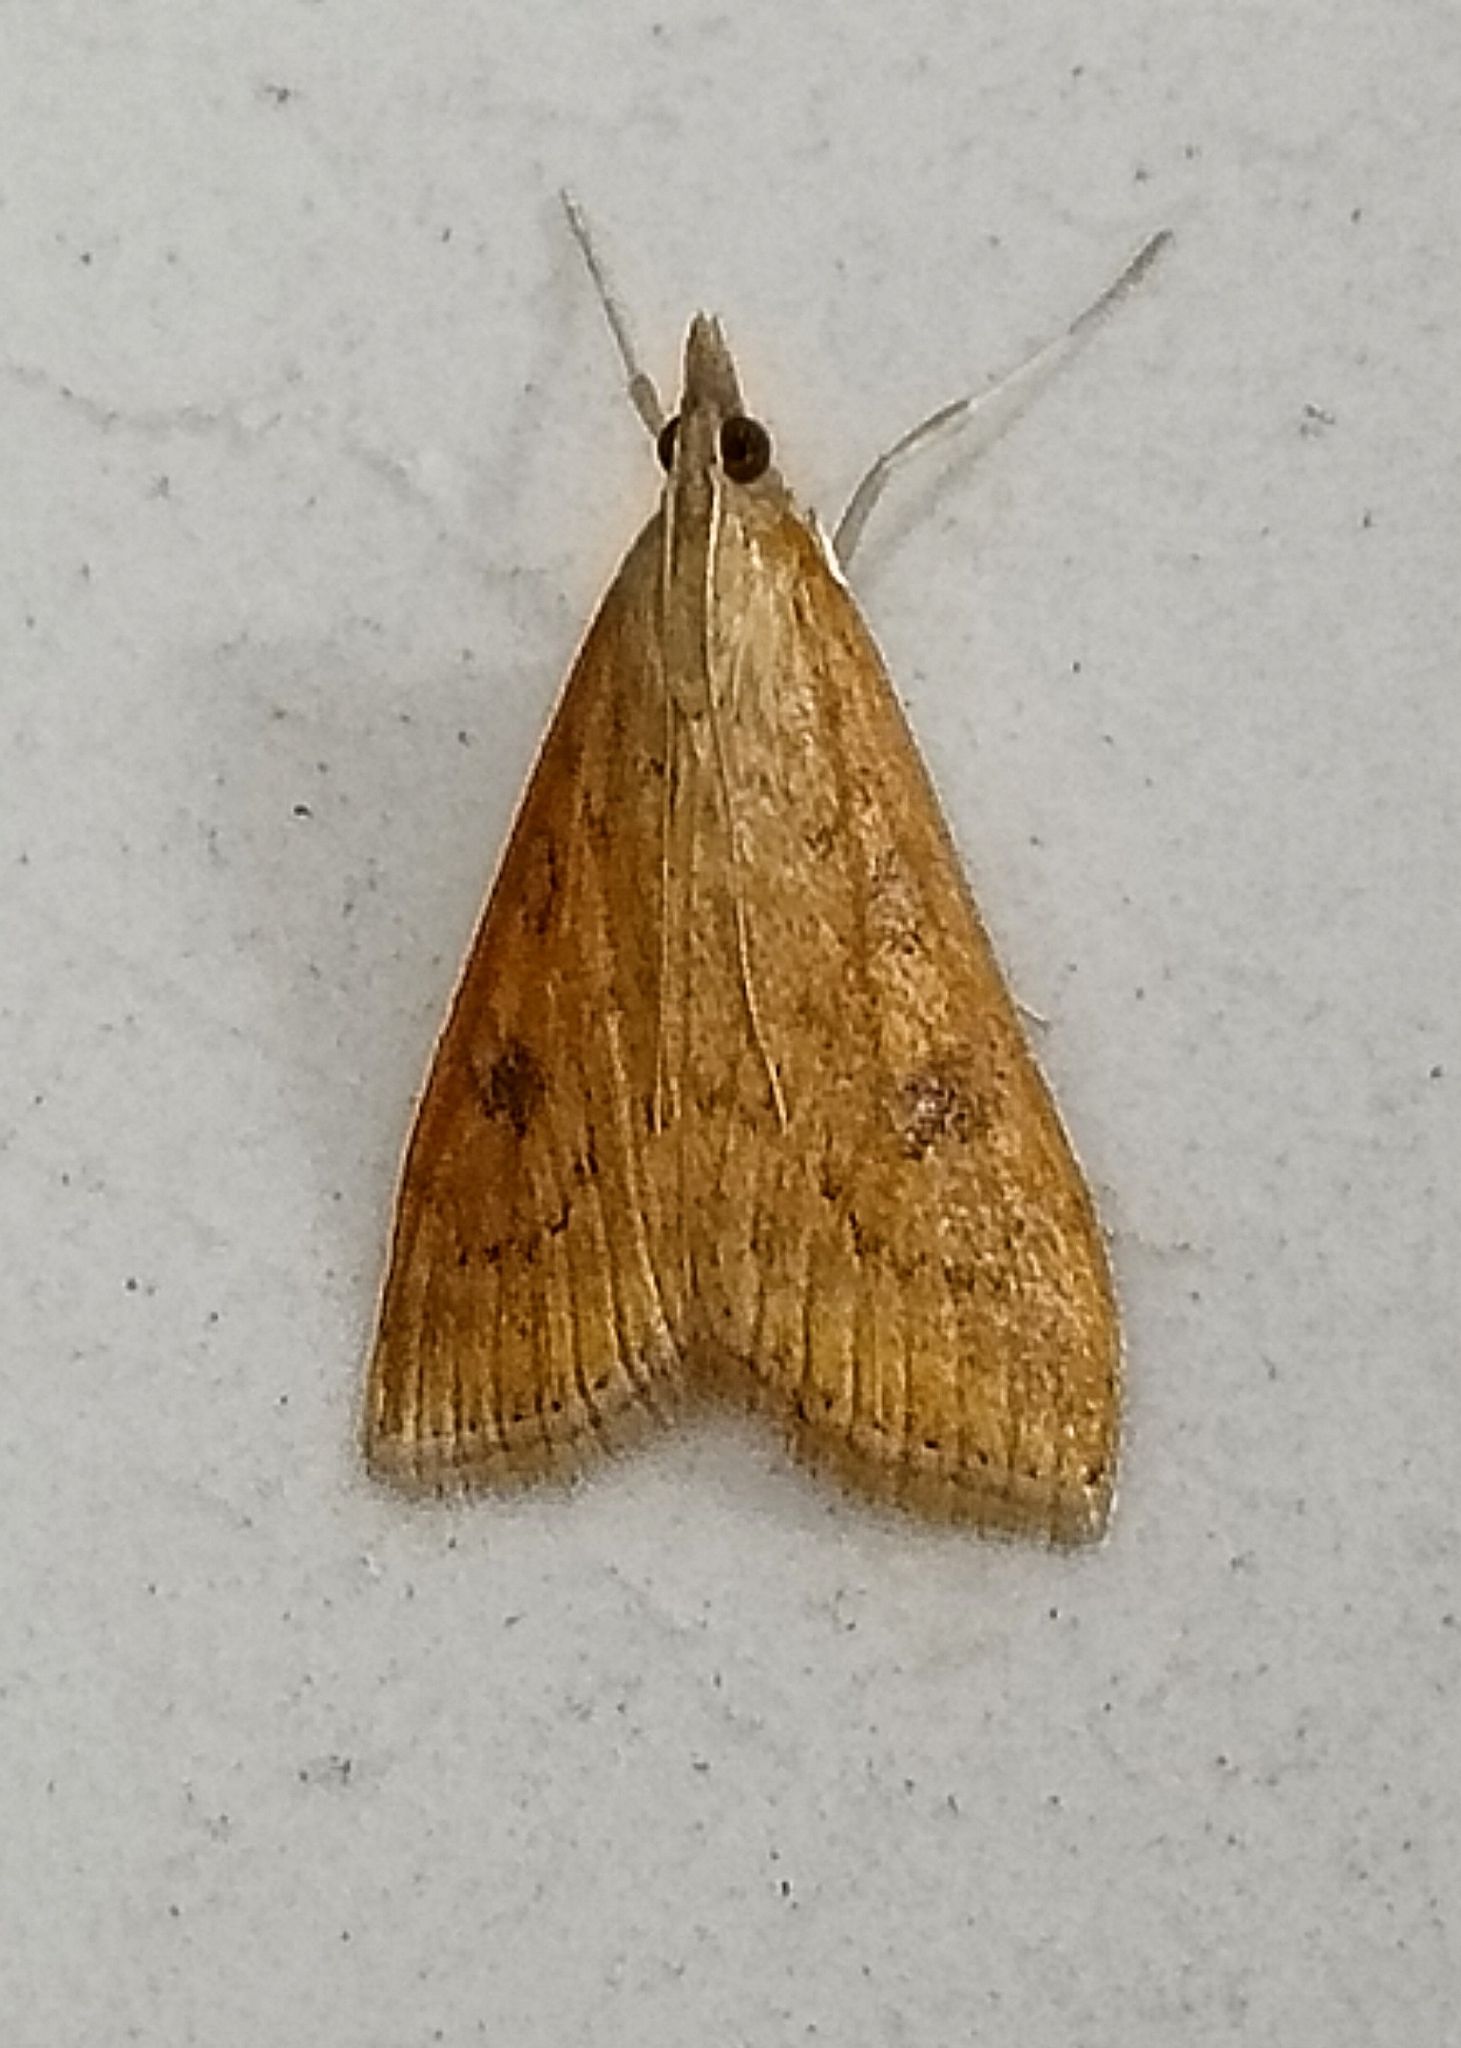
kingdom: Animalia
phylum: Arthropoda
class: Insecta
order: Lepidoptera
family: Crambidae
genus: Udea
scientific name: Udea ferrugalis
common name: Rusty dot
